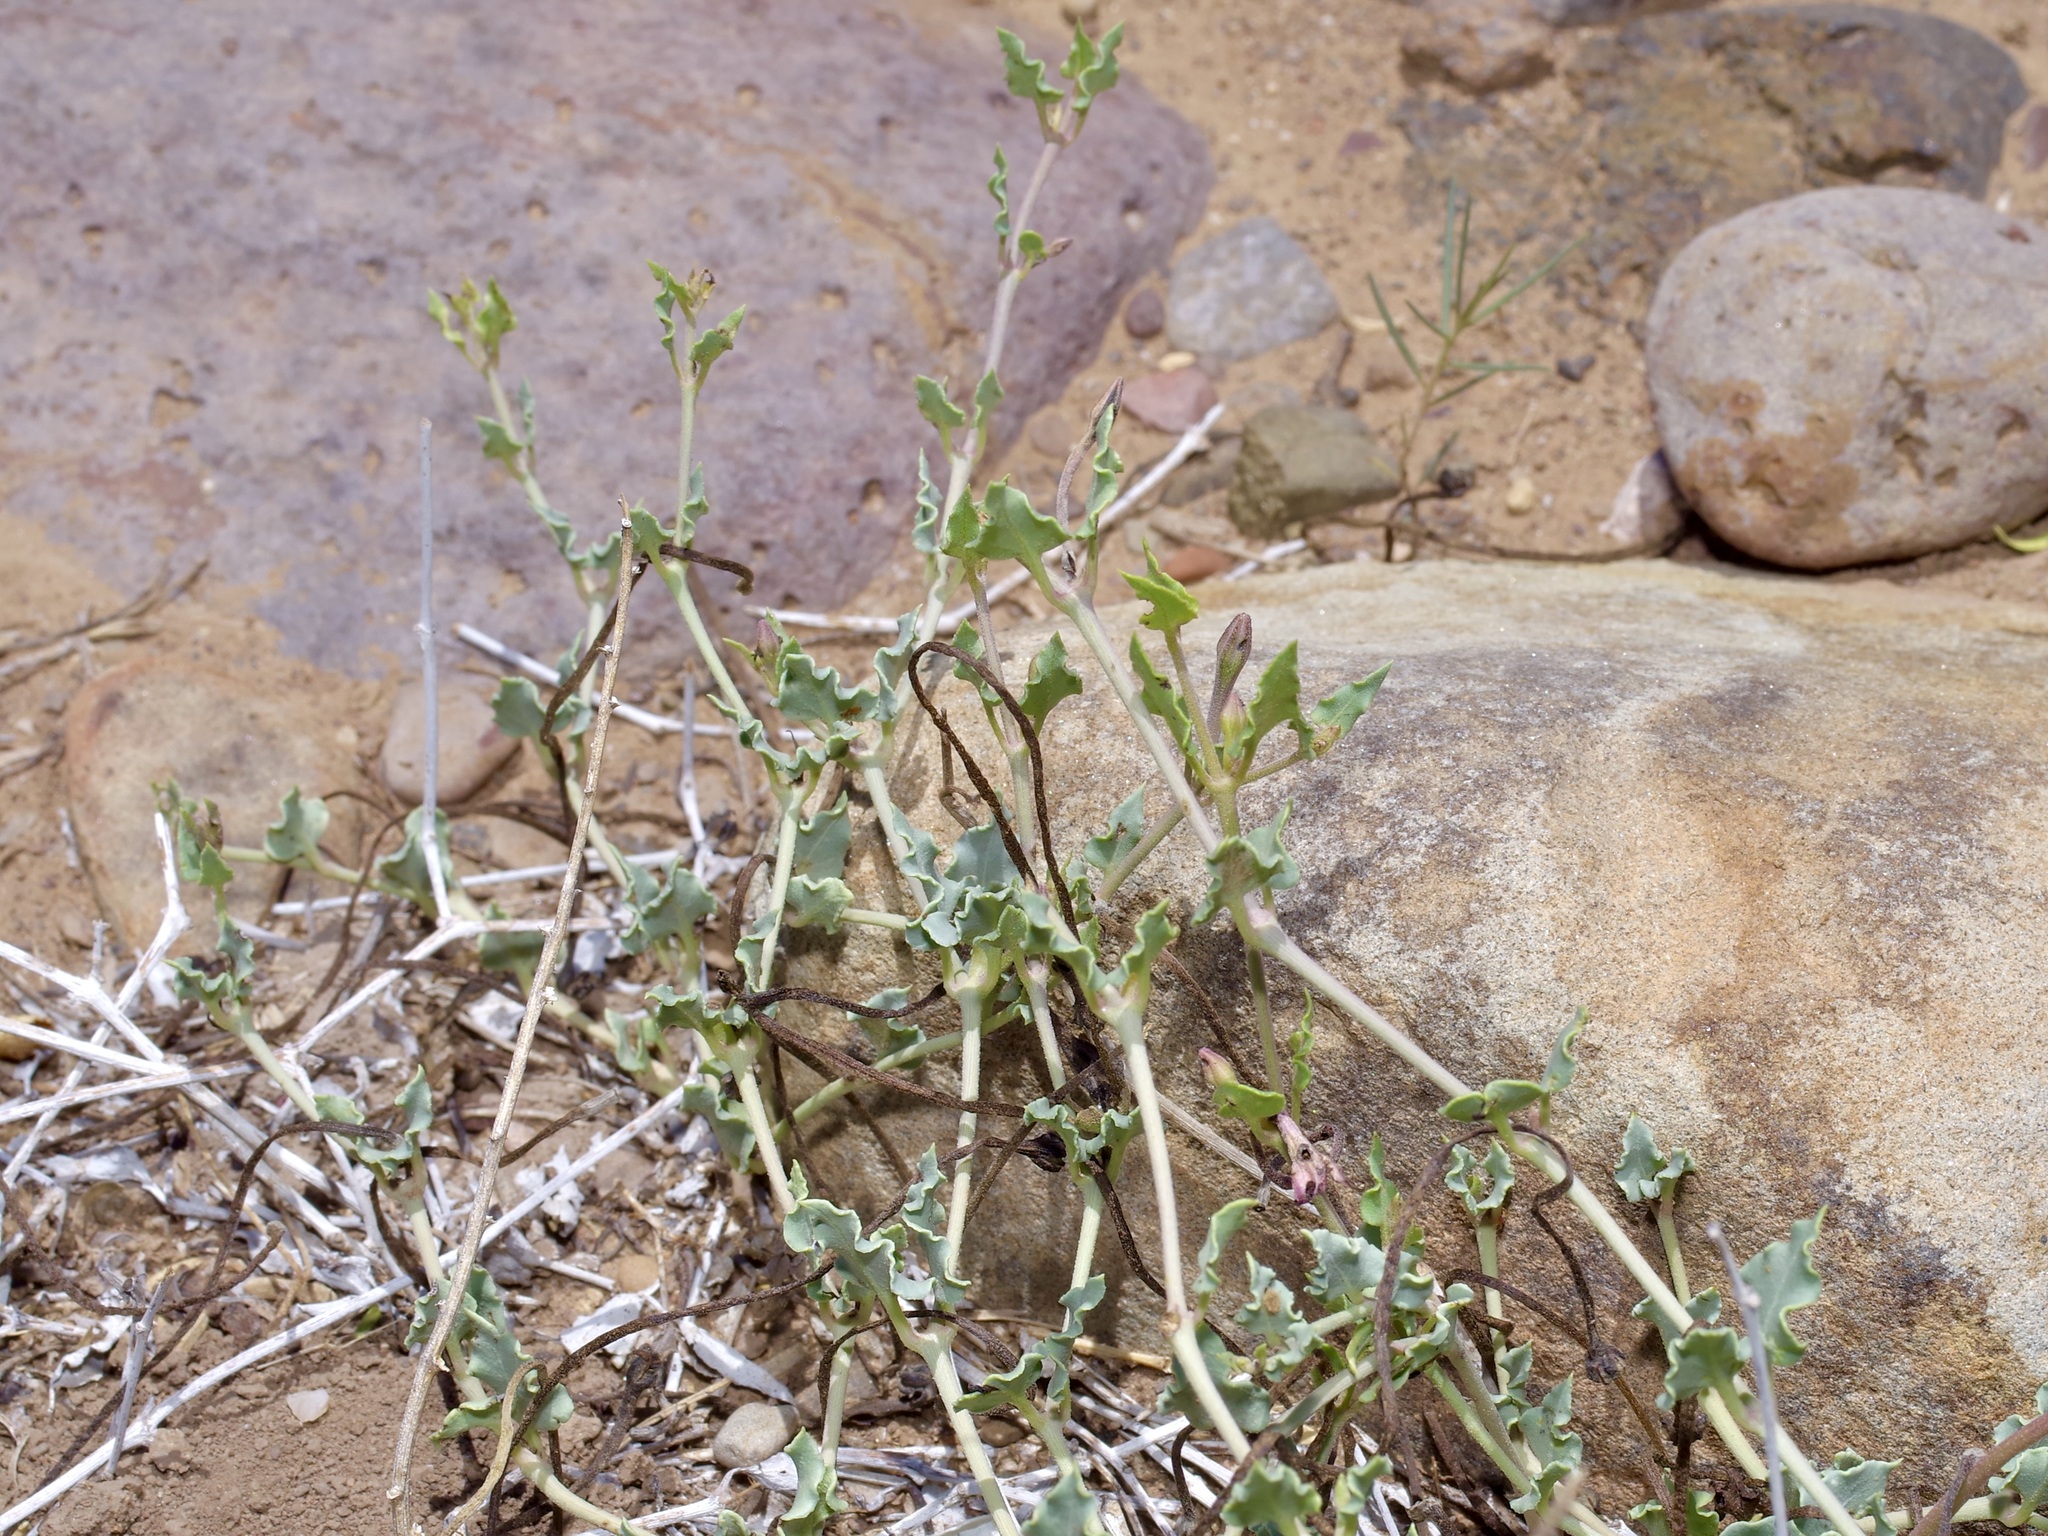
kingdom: Plantae
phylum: Tracheophyta
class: Magnoliopsida
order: Caryophyllales
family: Nyctaginaceae
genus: Acleisanthes
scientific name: Acleisanthes longiflora
